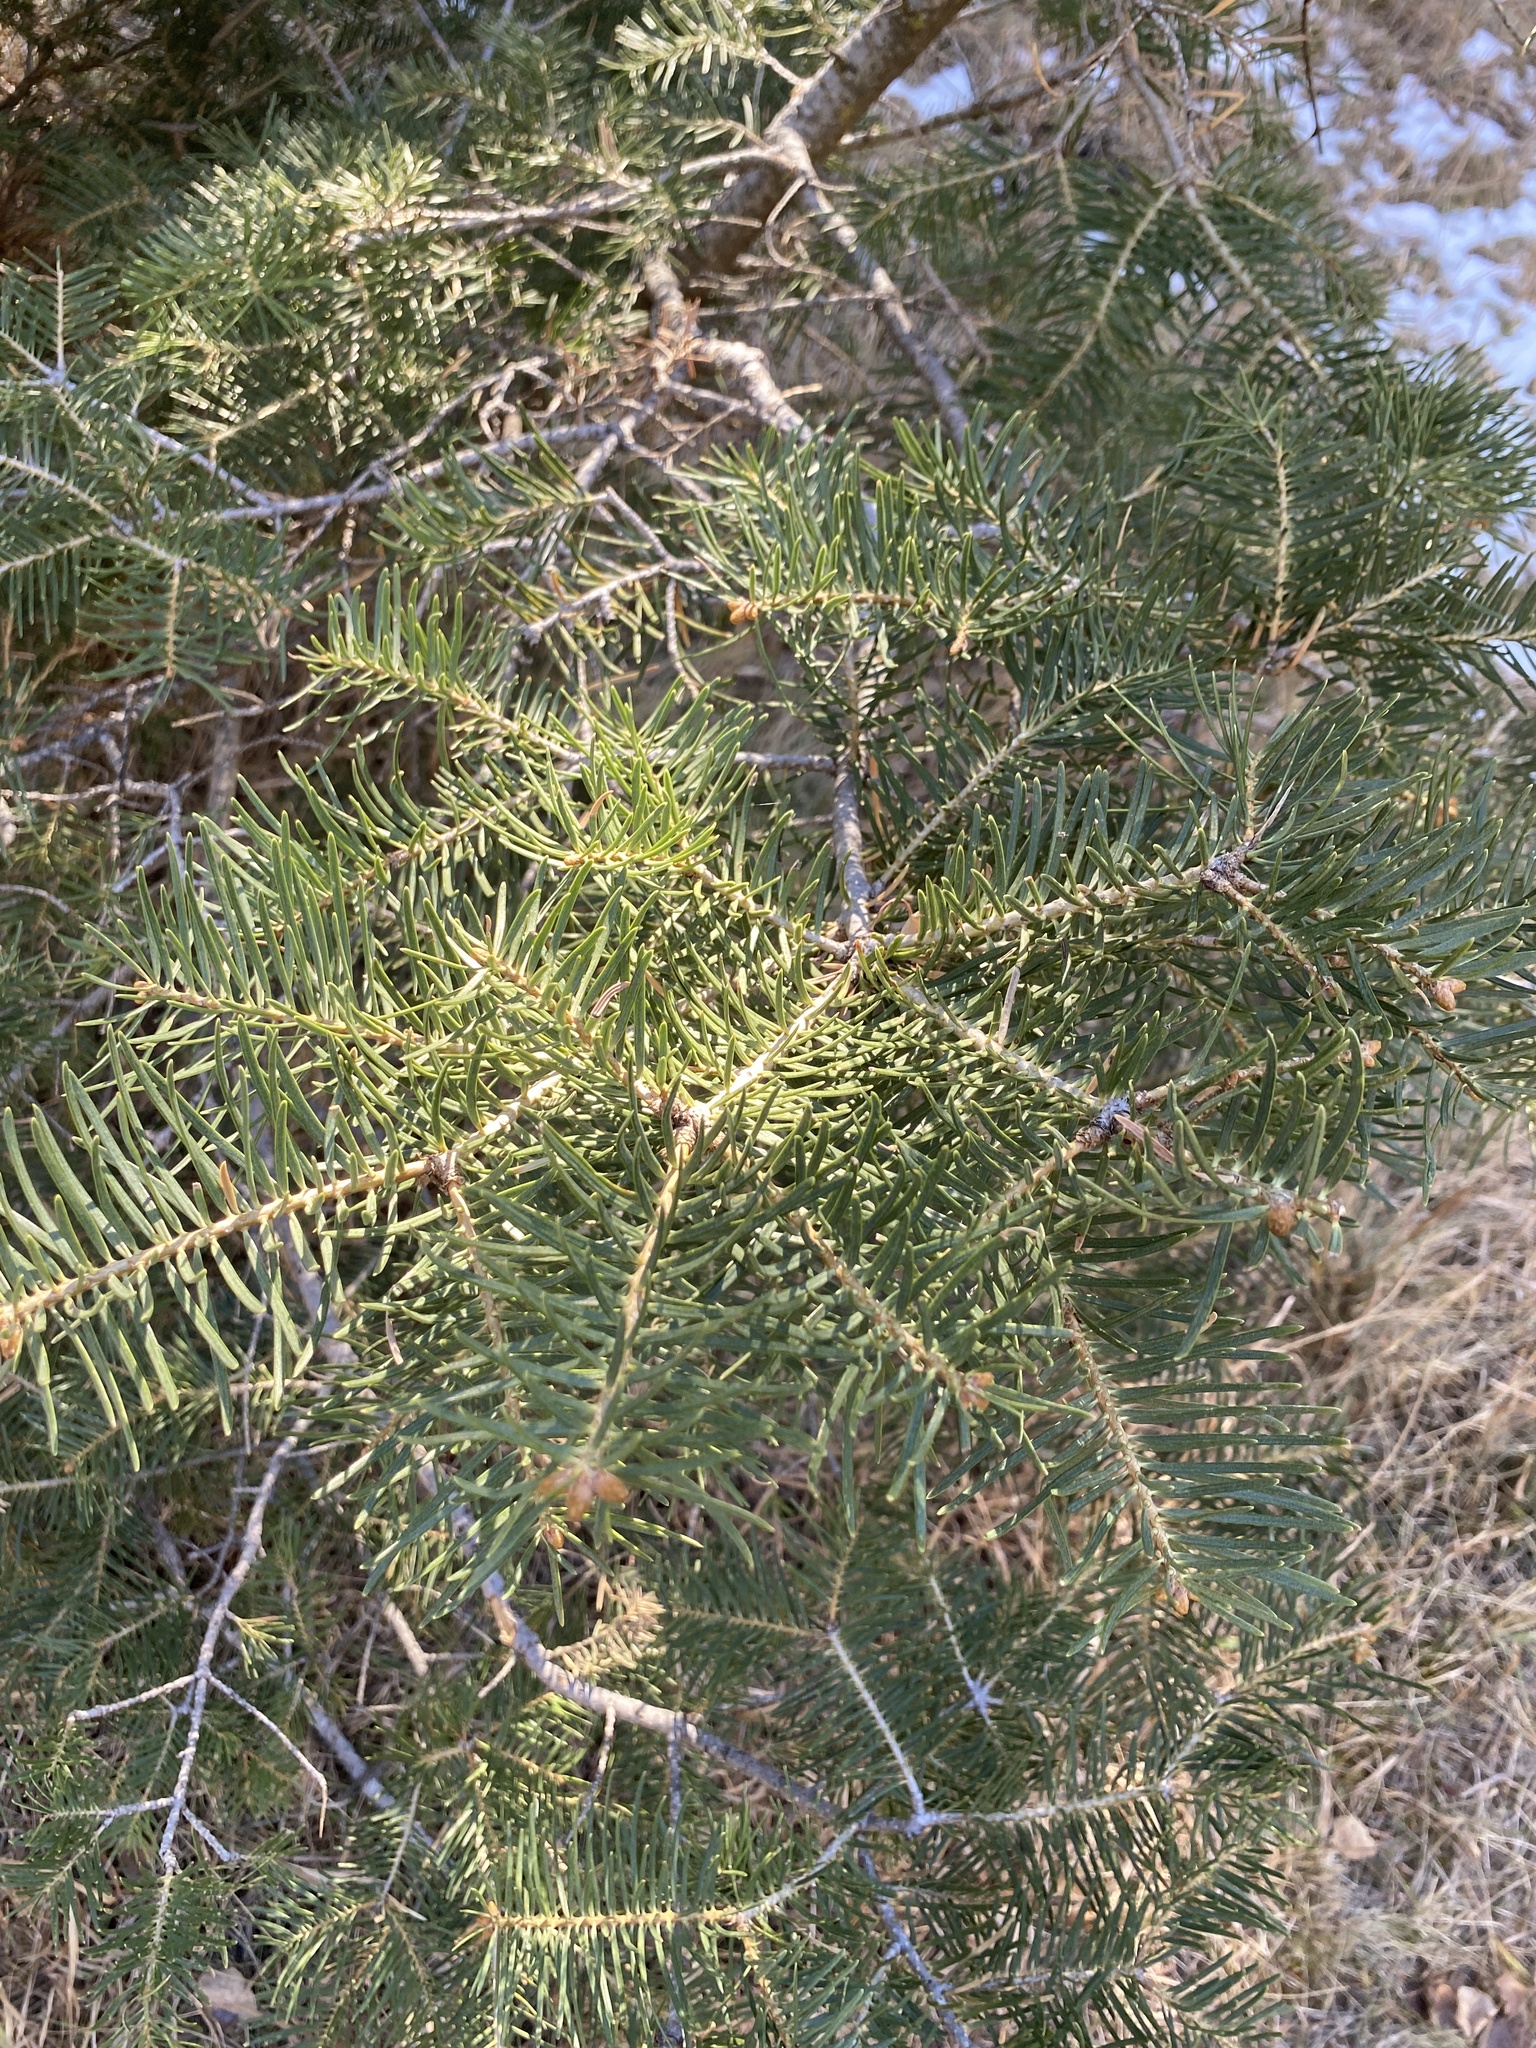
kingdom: Plantae
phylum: Tracheophyta
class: Pinopsida
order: Pinales
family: Pinaceae
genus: Abies
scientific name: Abies concolor
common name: Colorado fir
